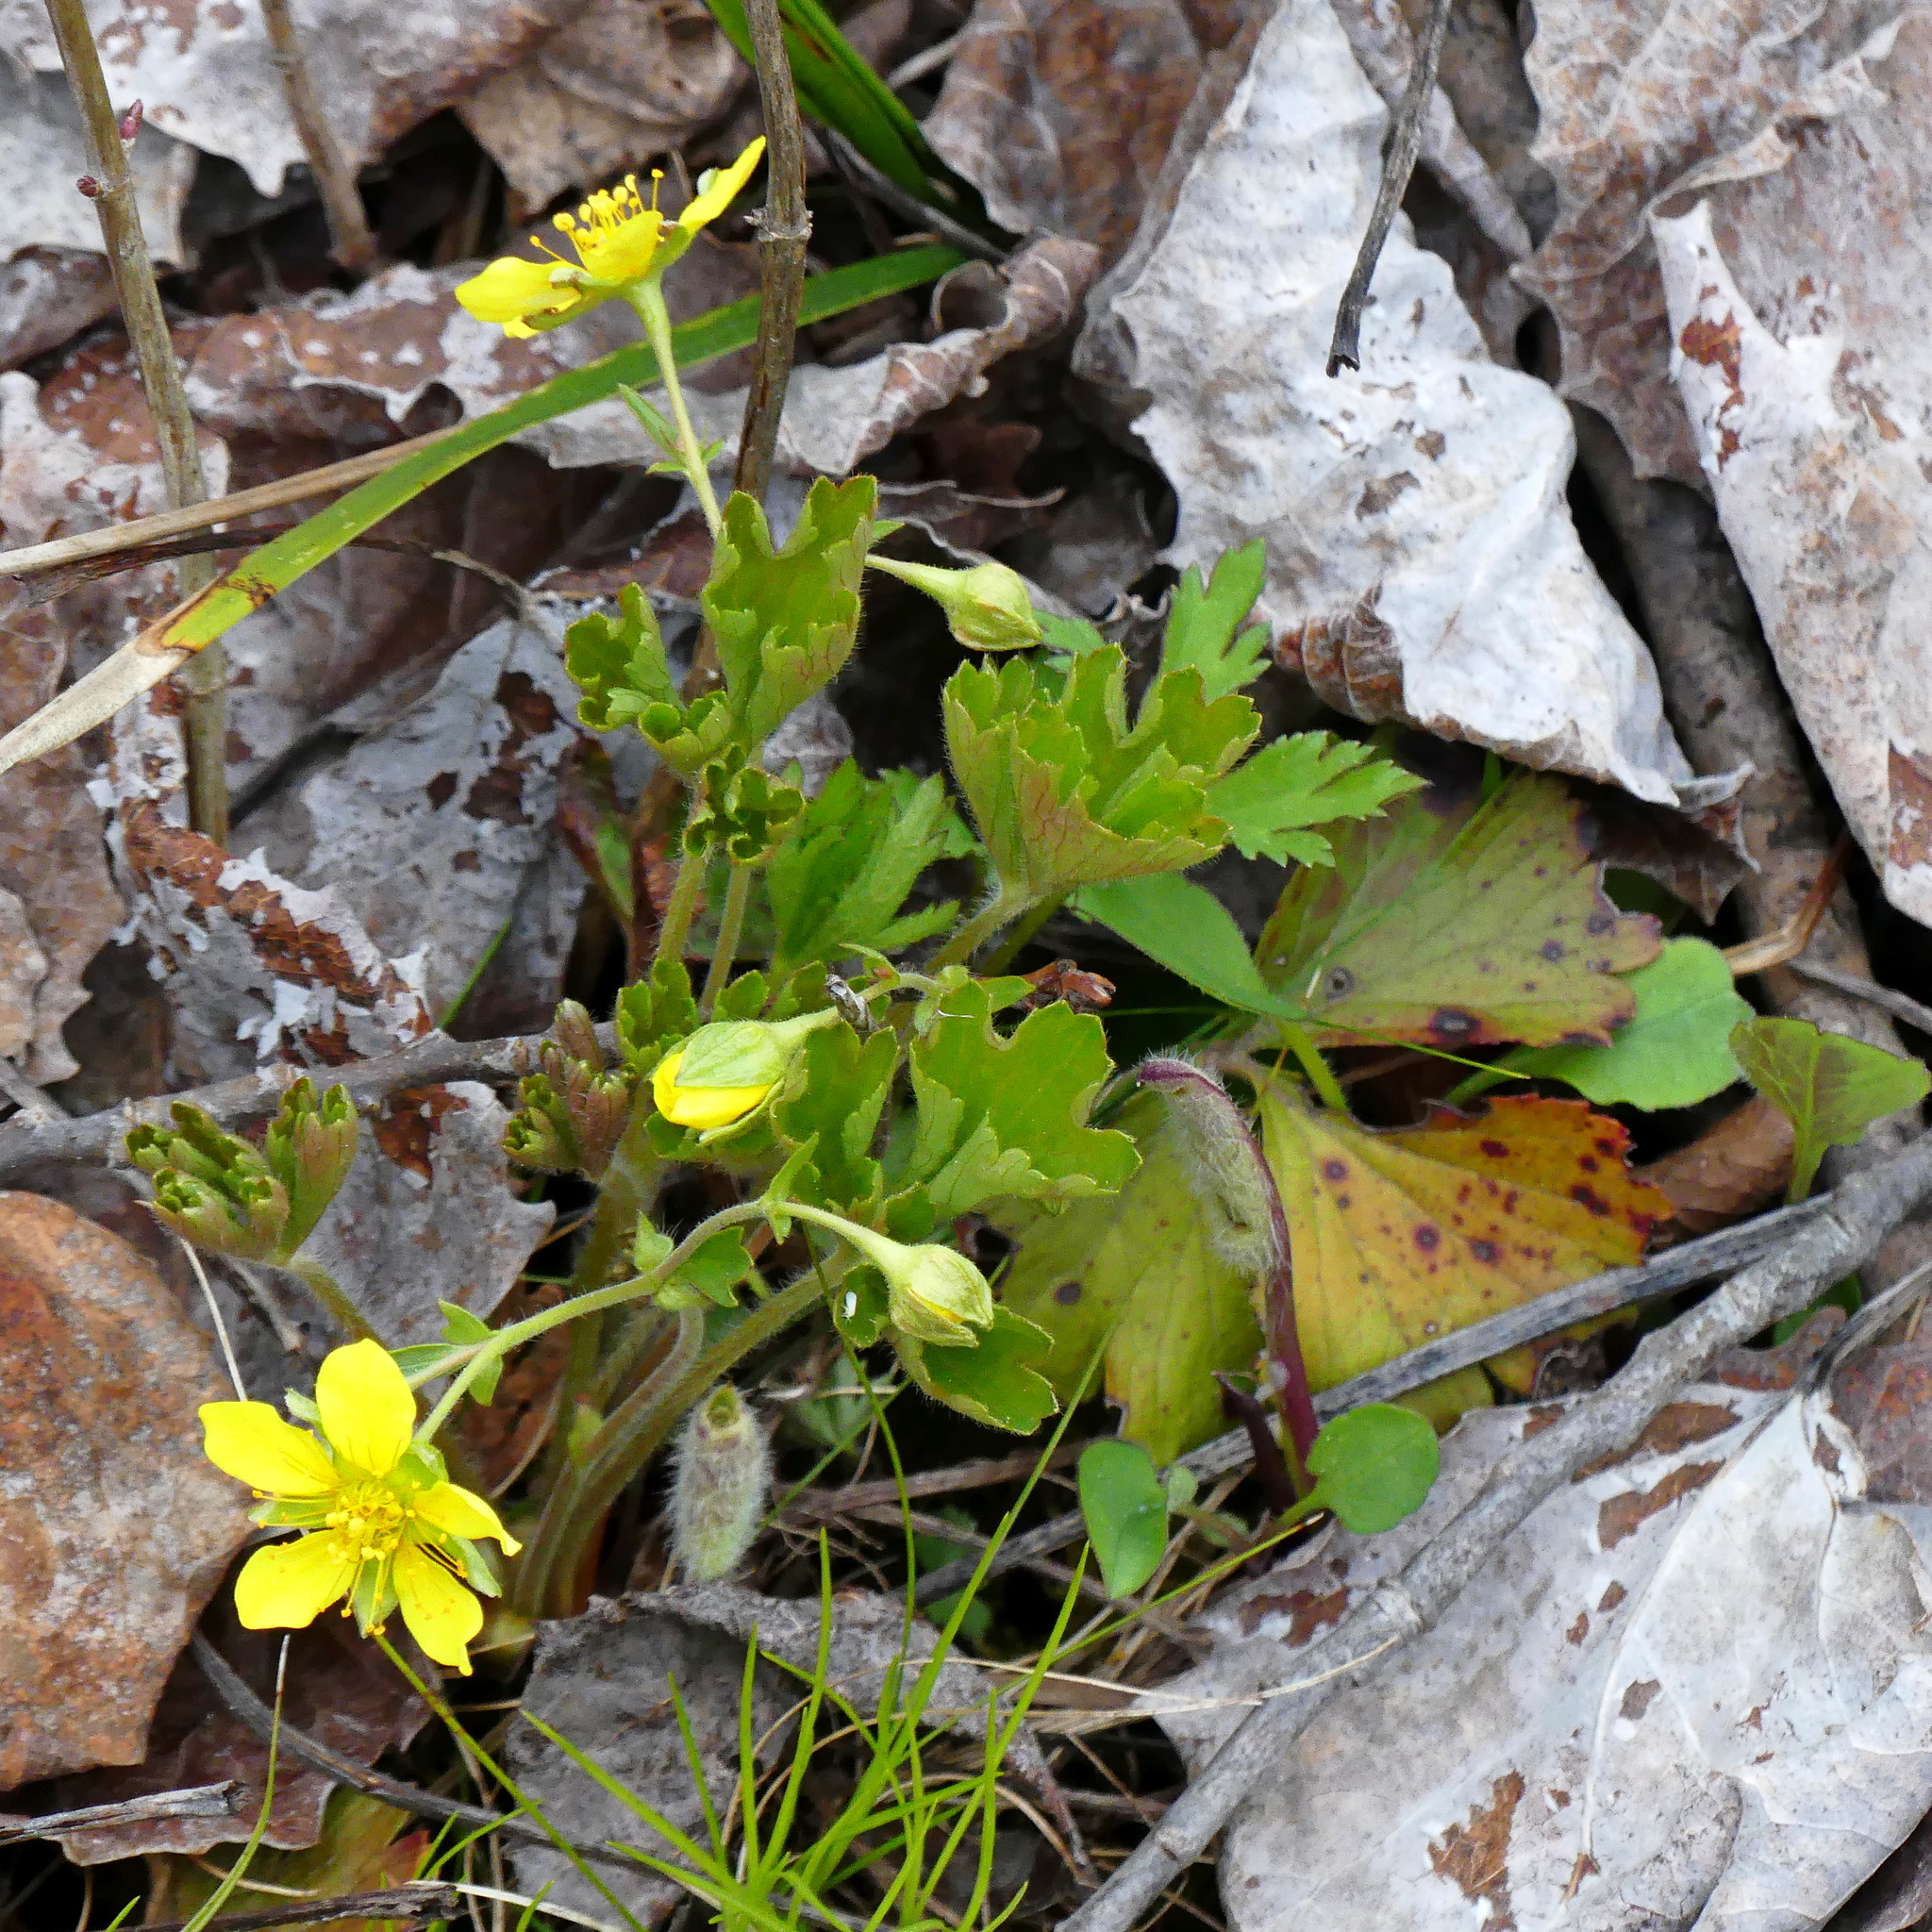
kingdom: Plantae
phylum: Tracheophyta
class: Magnoliopsida
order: Rosales
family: Rosaceae
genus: Geum
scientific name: Geum fragarioides
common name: Appalachian barren strawberry
